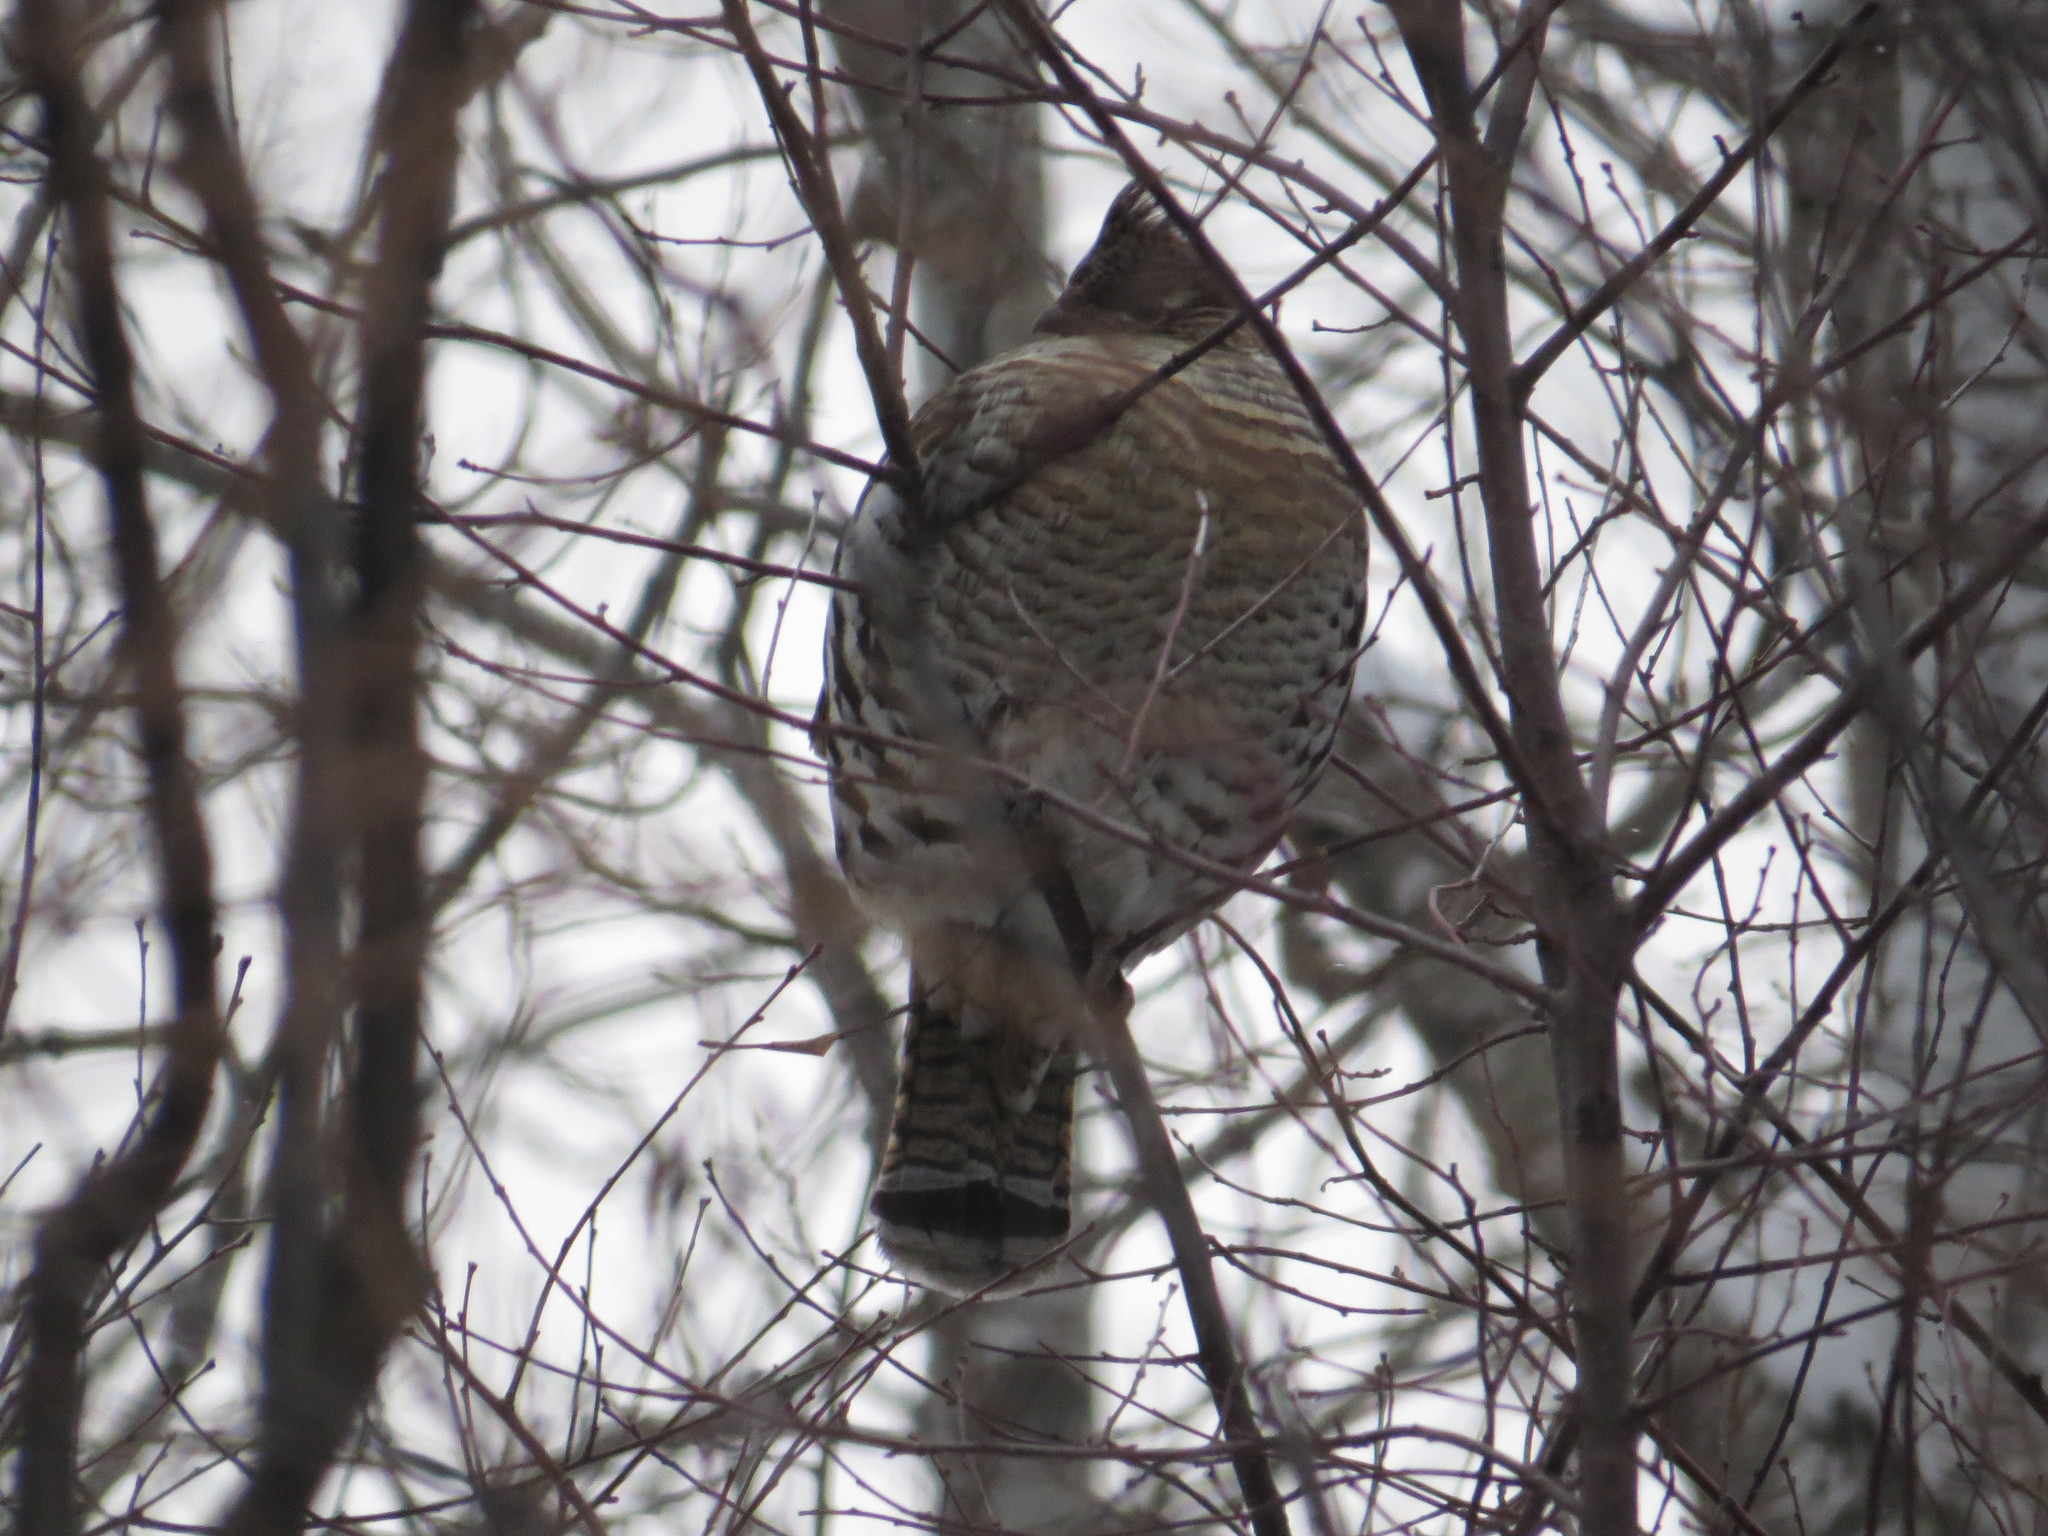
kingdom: Animalia
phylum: Chordata
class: Aves
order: Galliformes
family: Phasianidae
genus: Bonasa
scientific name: Bonasa umbellus
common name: Ruffed grouse
